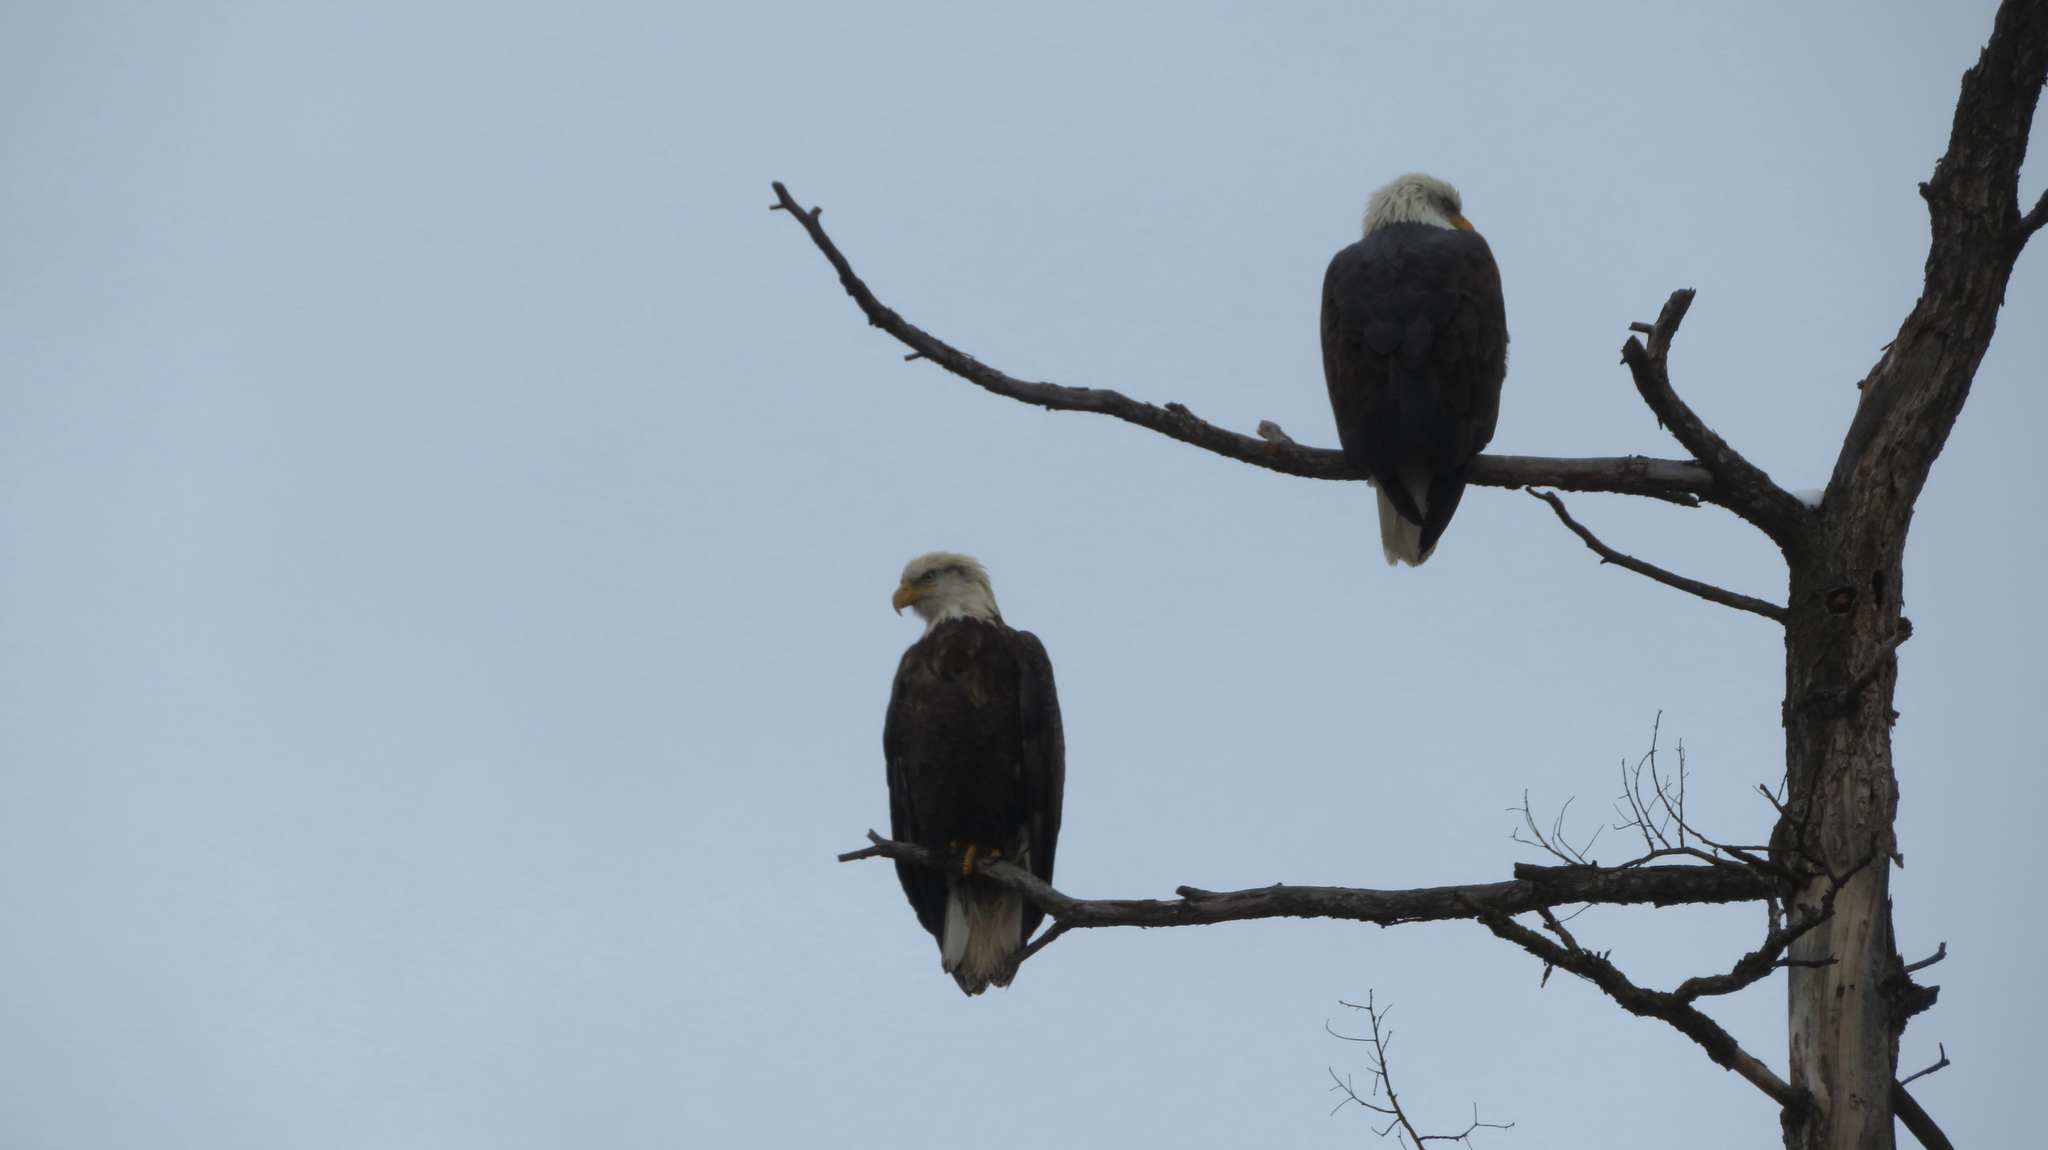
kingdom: Animalia
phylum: Chordata
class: Aves
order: Accipitriformes
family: Accipitridae
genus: Haliaeetus
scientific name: Haliaeetus leucocephalus
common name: Bald eagle
